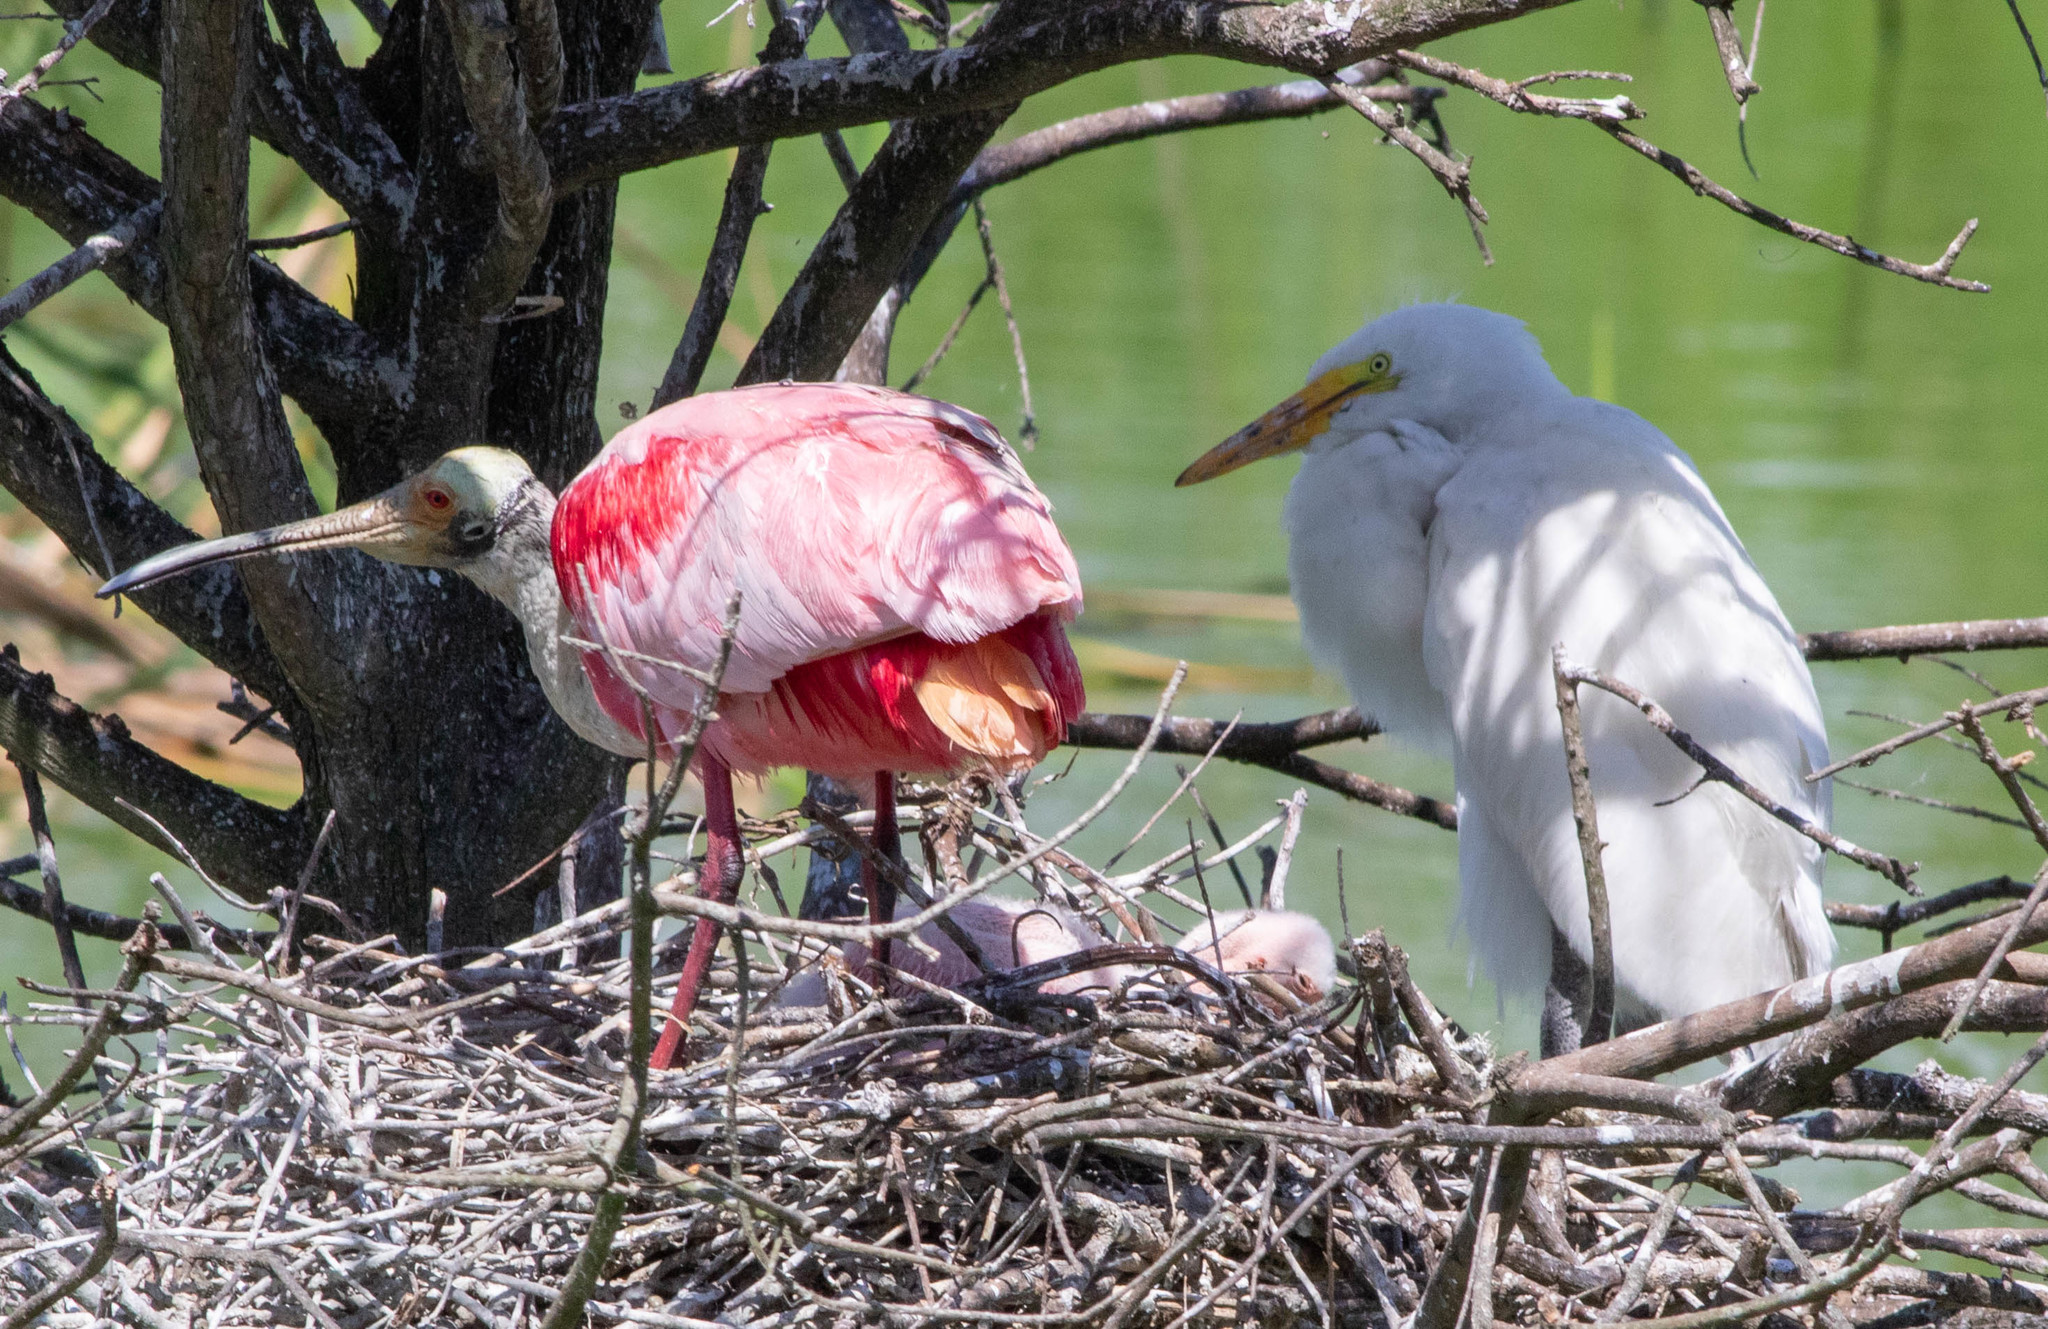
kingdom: Animalia
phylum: Chordata
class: Aves
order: Pelecaniformes
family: Ardeidae
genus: Ardea
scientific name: Ardea alba
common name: Great egret
